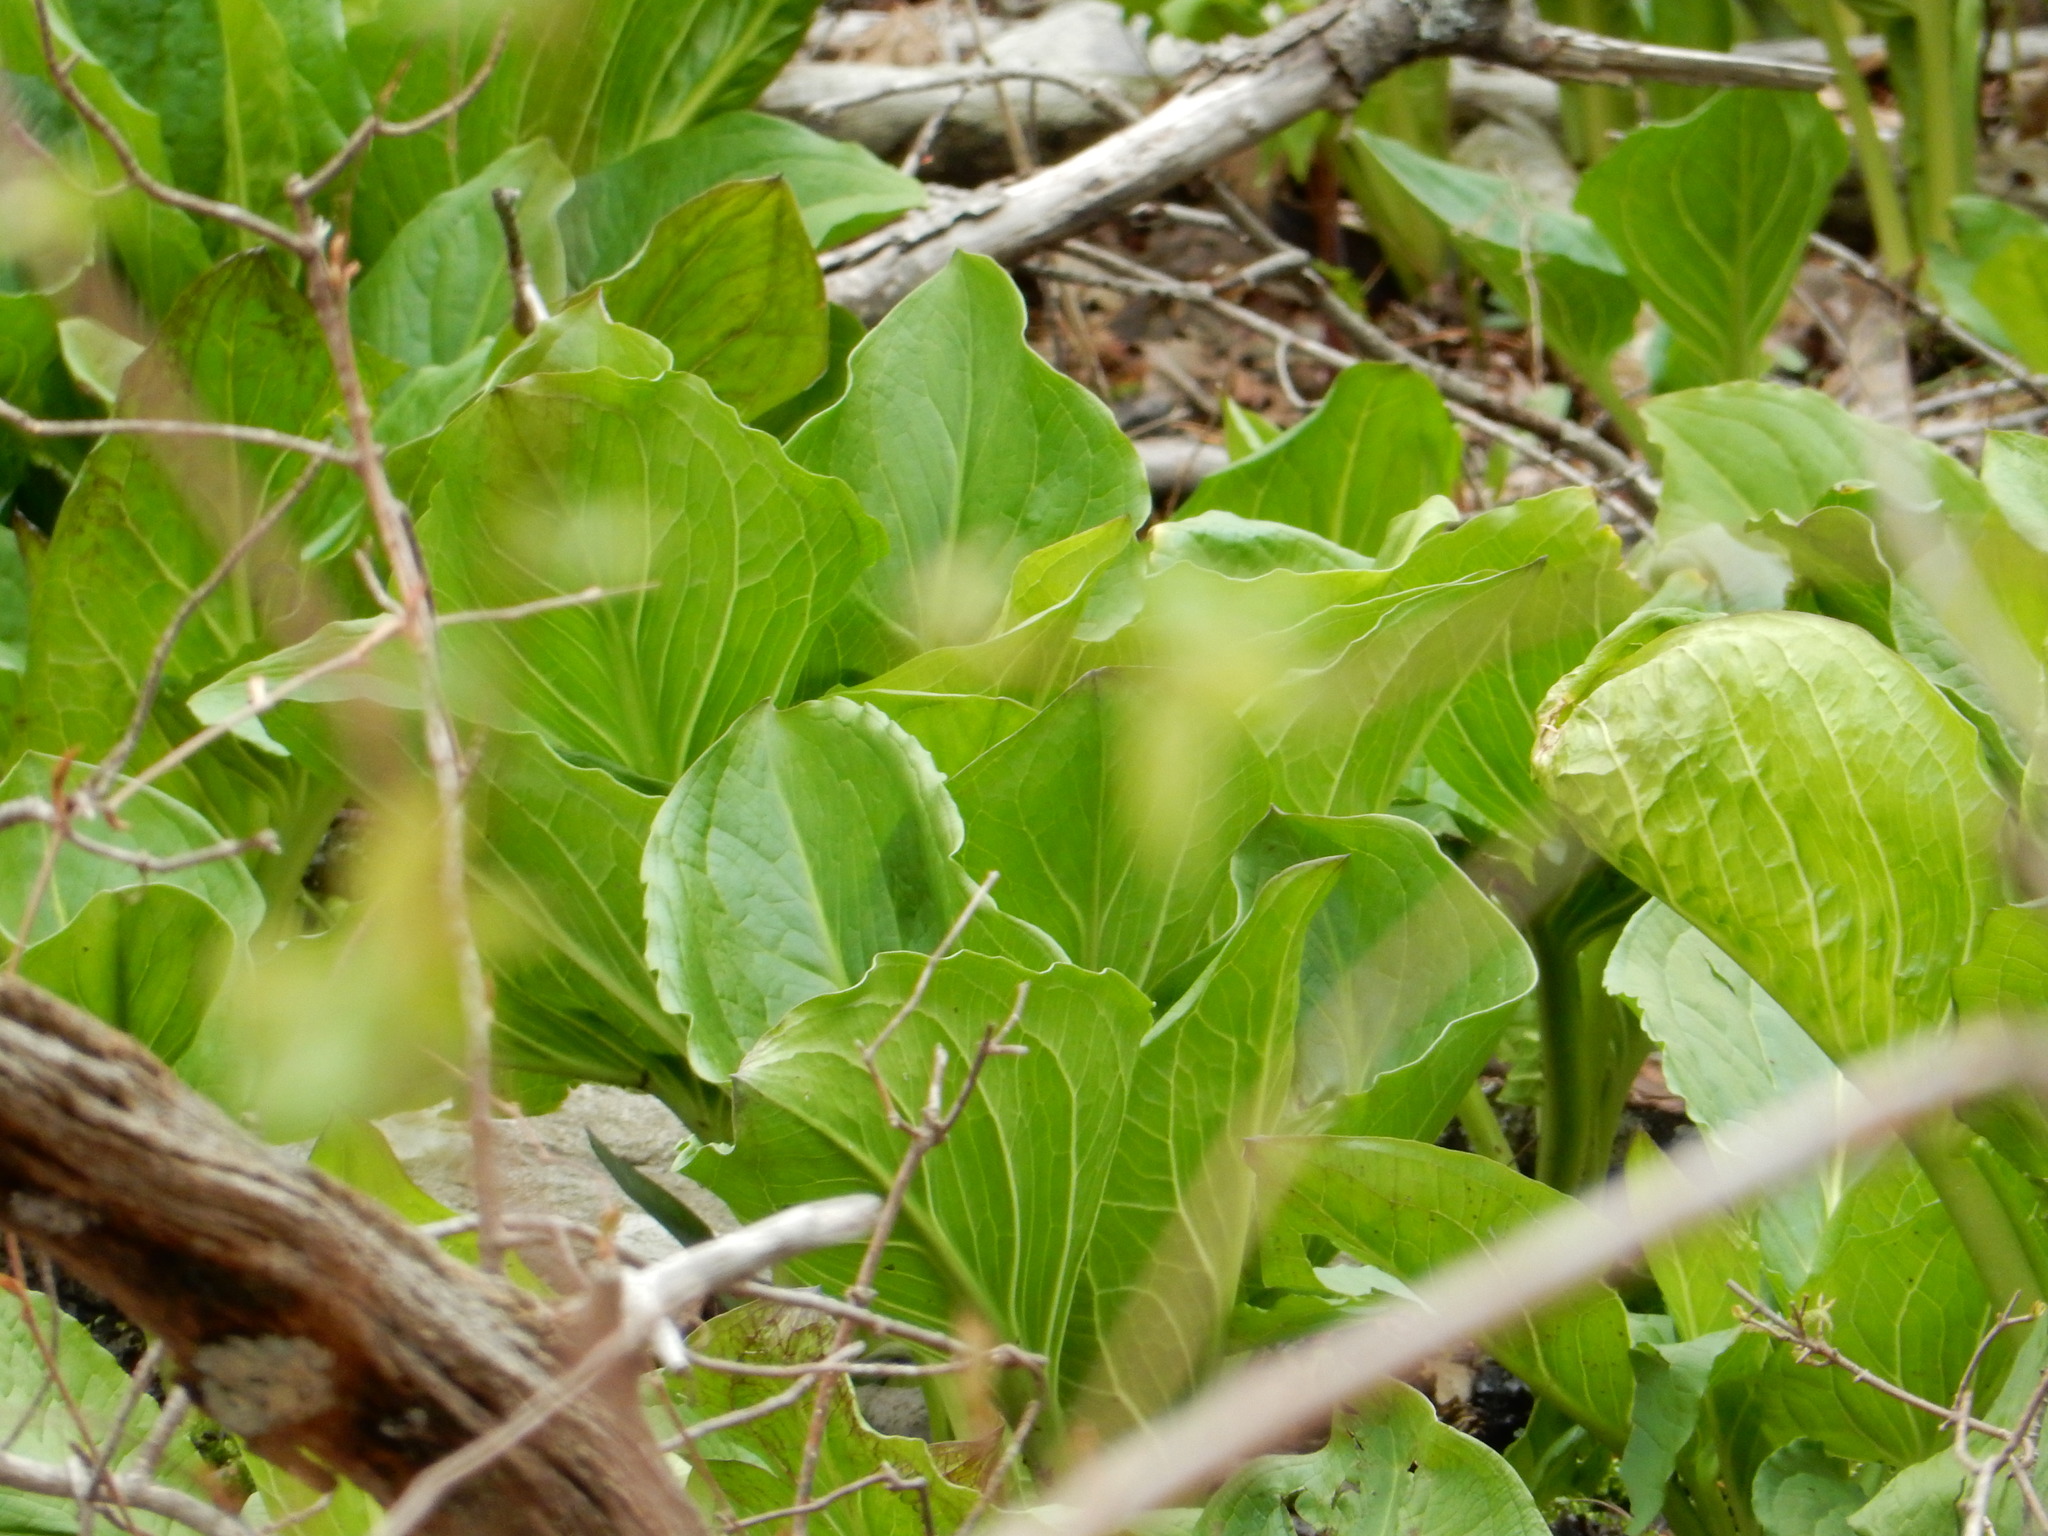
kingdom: Plantae
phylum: Tracheophyta
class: Liliopsida
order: Alismatales
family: Araceae
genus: Symplocarpus
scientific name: Symplocarpus foetidus
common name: Eastern skunk cabbage
